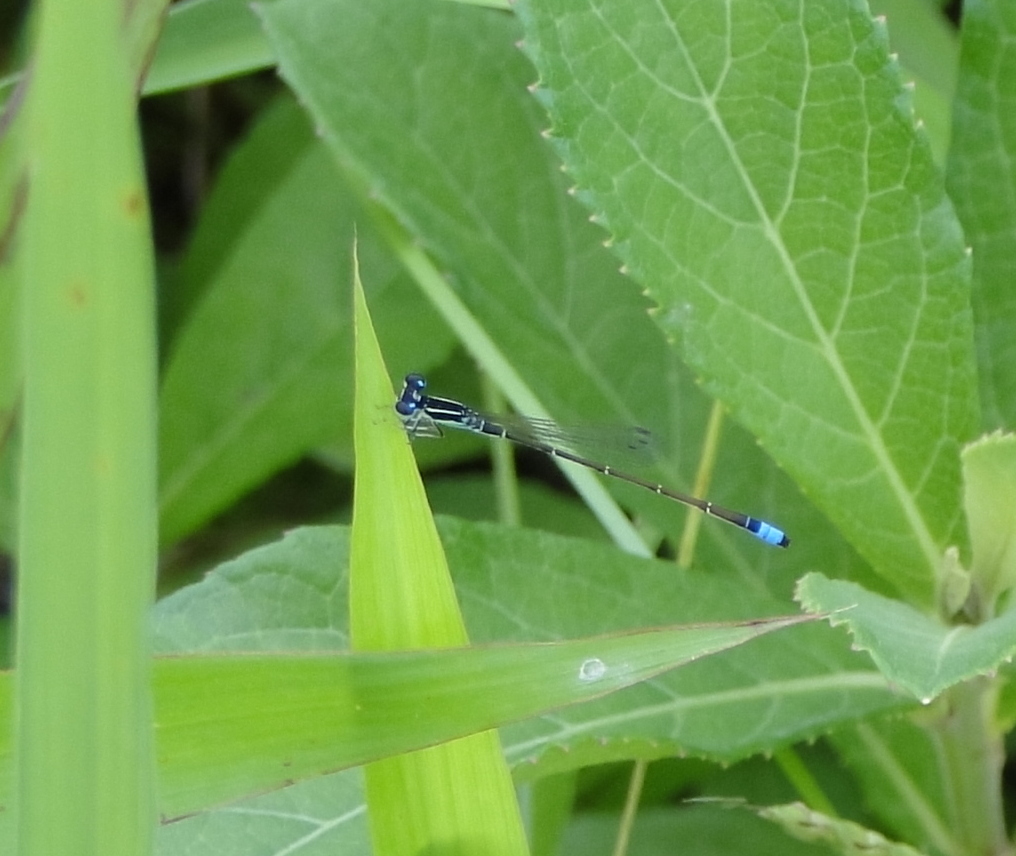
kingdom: Animalia
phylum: Arthropoda
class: Insecta
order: Odonata
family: Coenagrionidae
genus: Ischnura
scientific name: Ischnura capreolus
